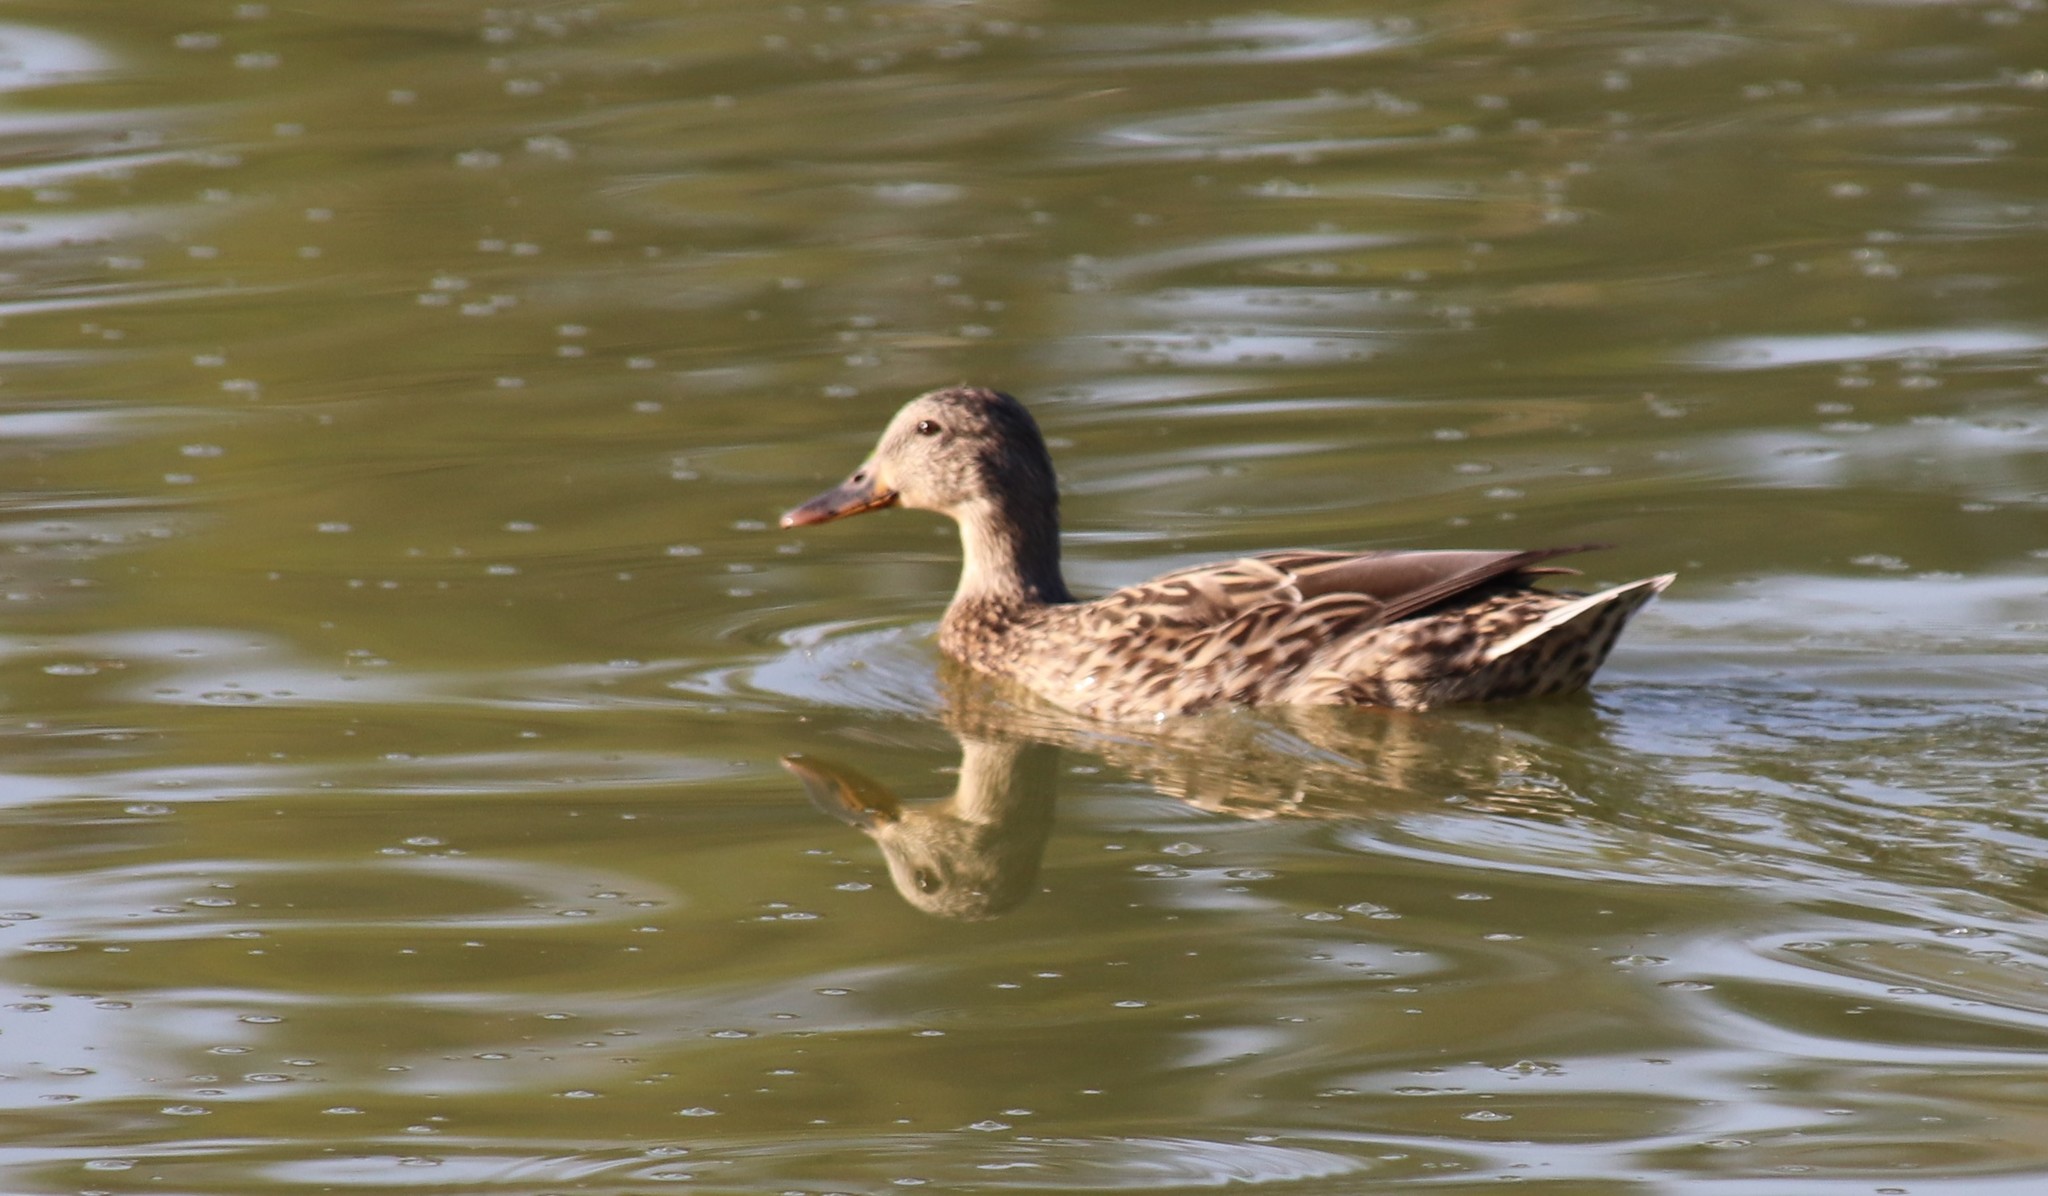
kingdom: Animalia
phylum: Chordata
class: Aves
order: Anseriformes
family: Anatidae
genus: Anas
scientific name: Anas platyrhynchos
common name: Mallard
